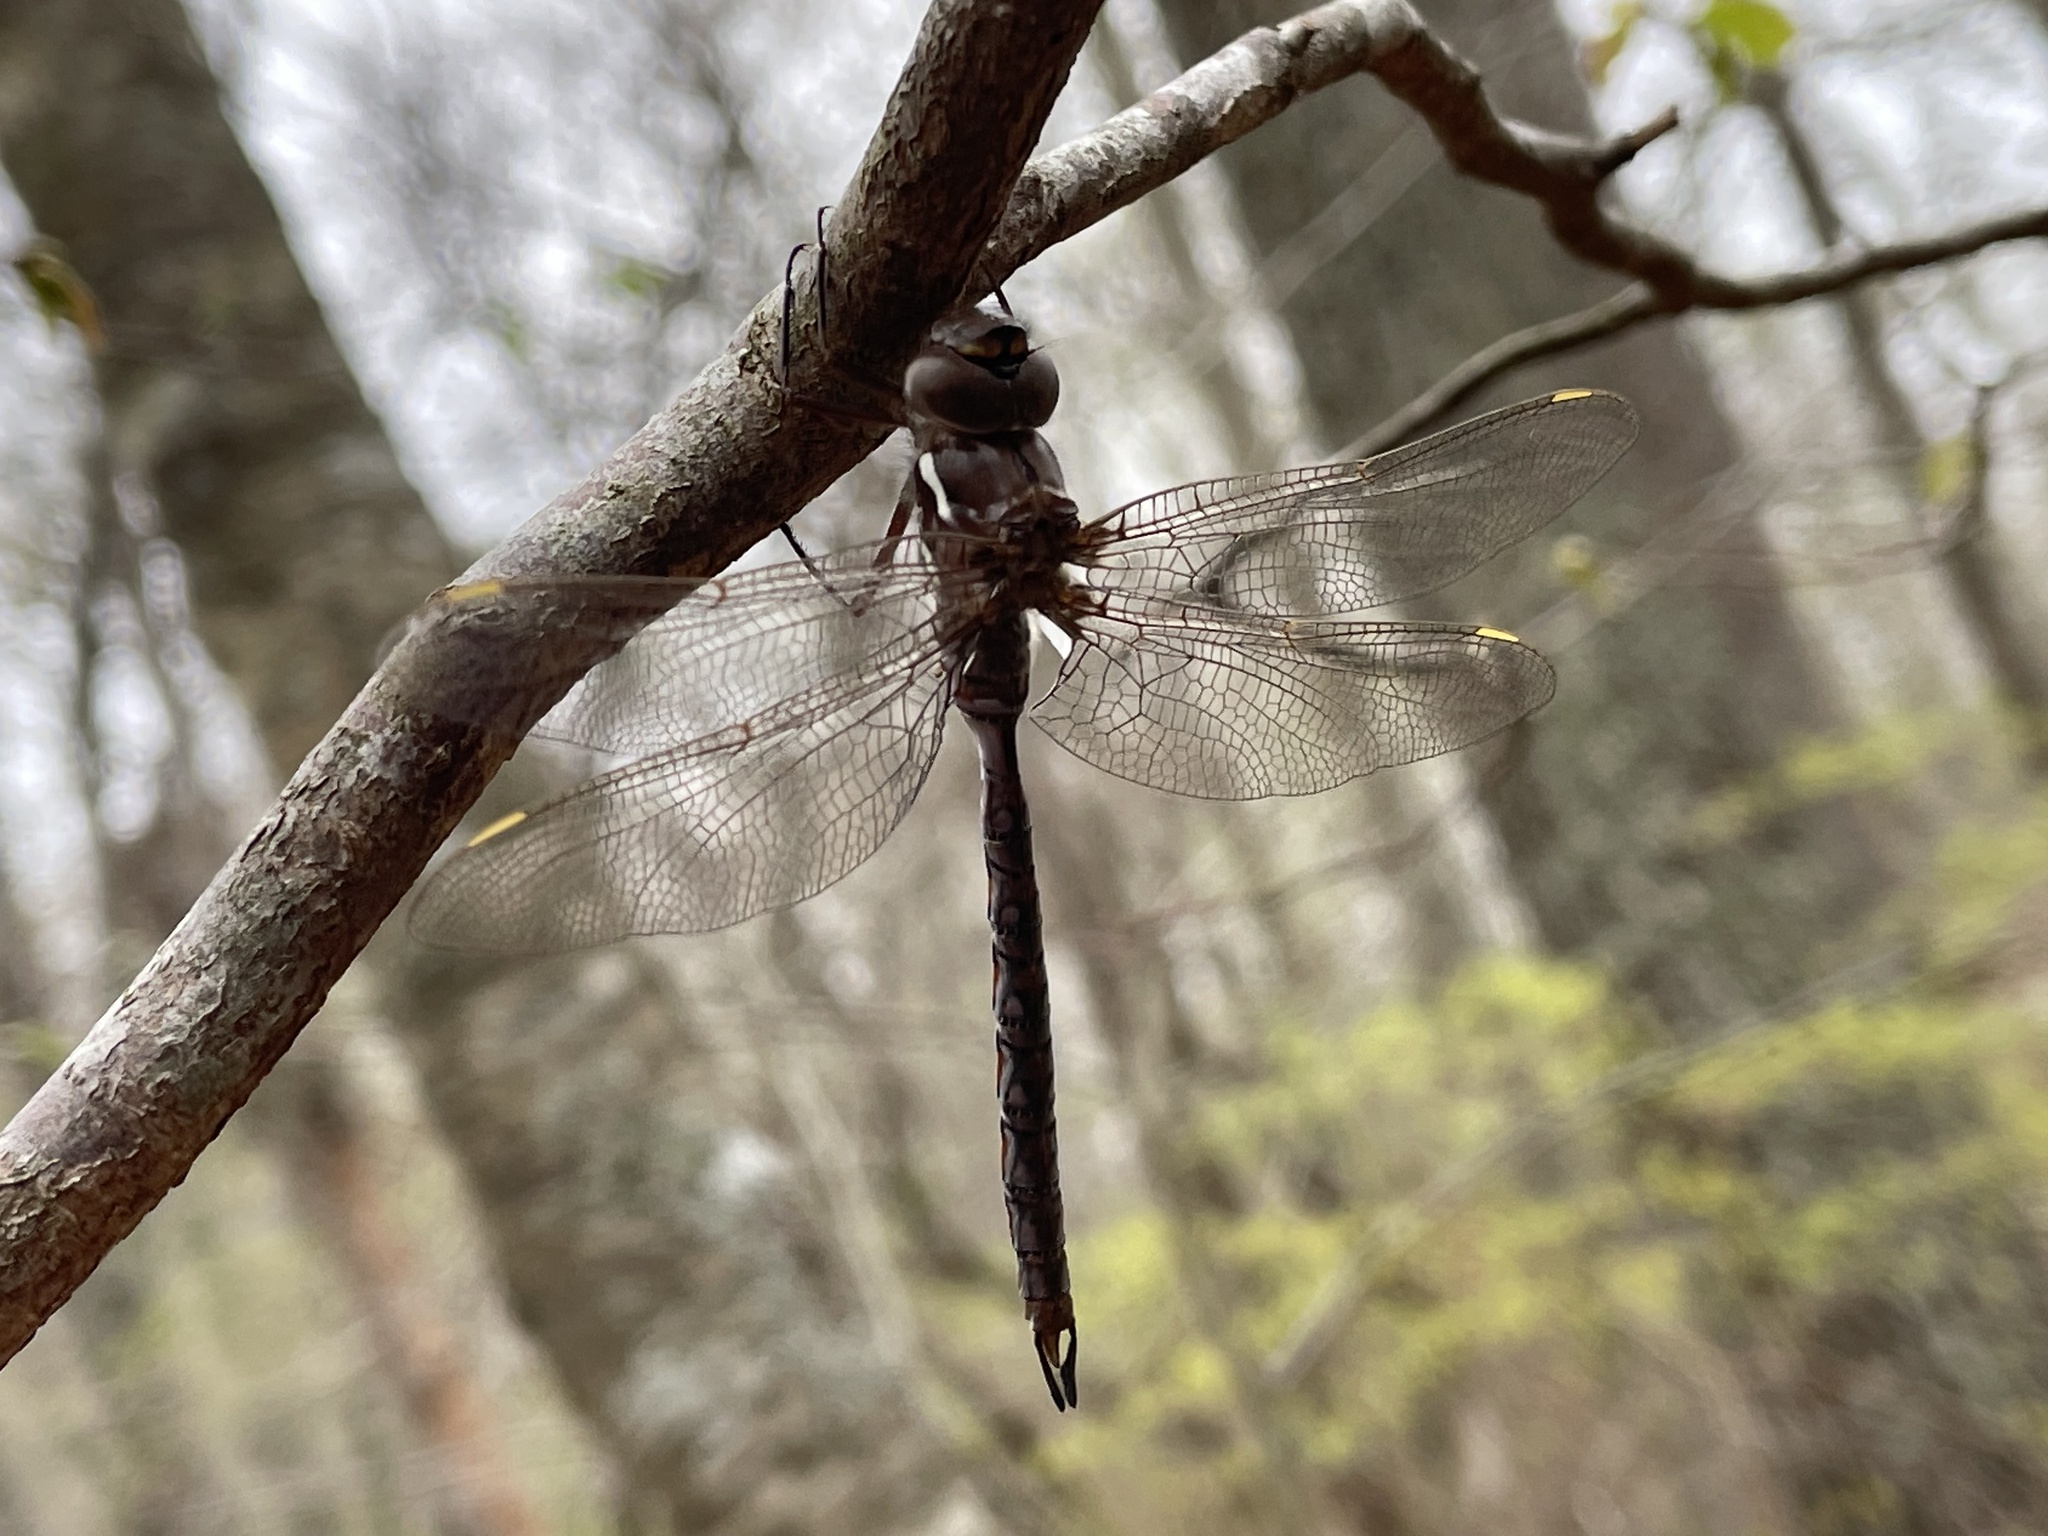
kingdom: Animalia
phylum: Arthropoda
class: Insecta
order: Odonata
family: Aeshnidae
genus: Basiaeschna
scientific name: Basiaeschna janata
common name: Springtime darner
